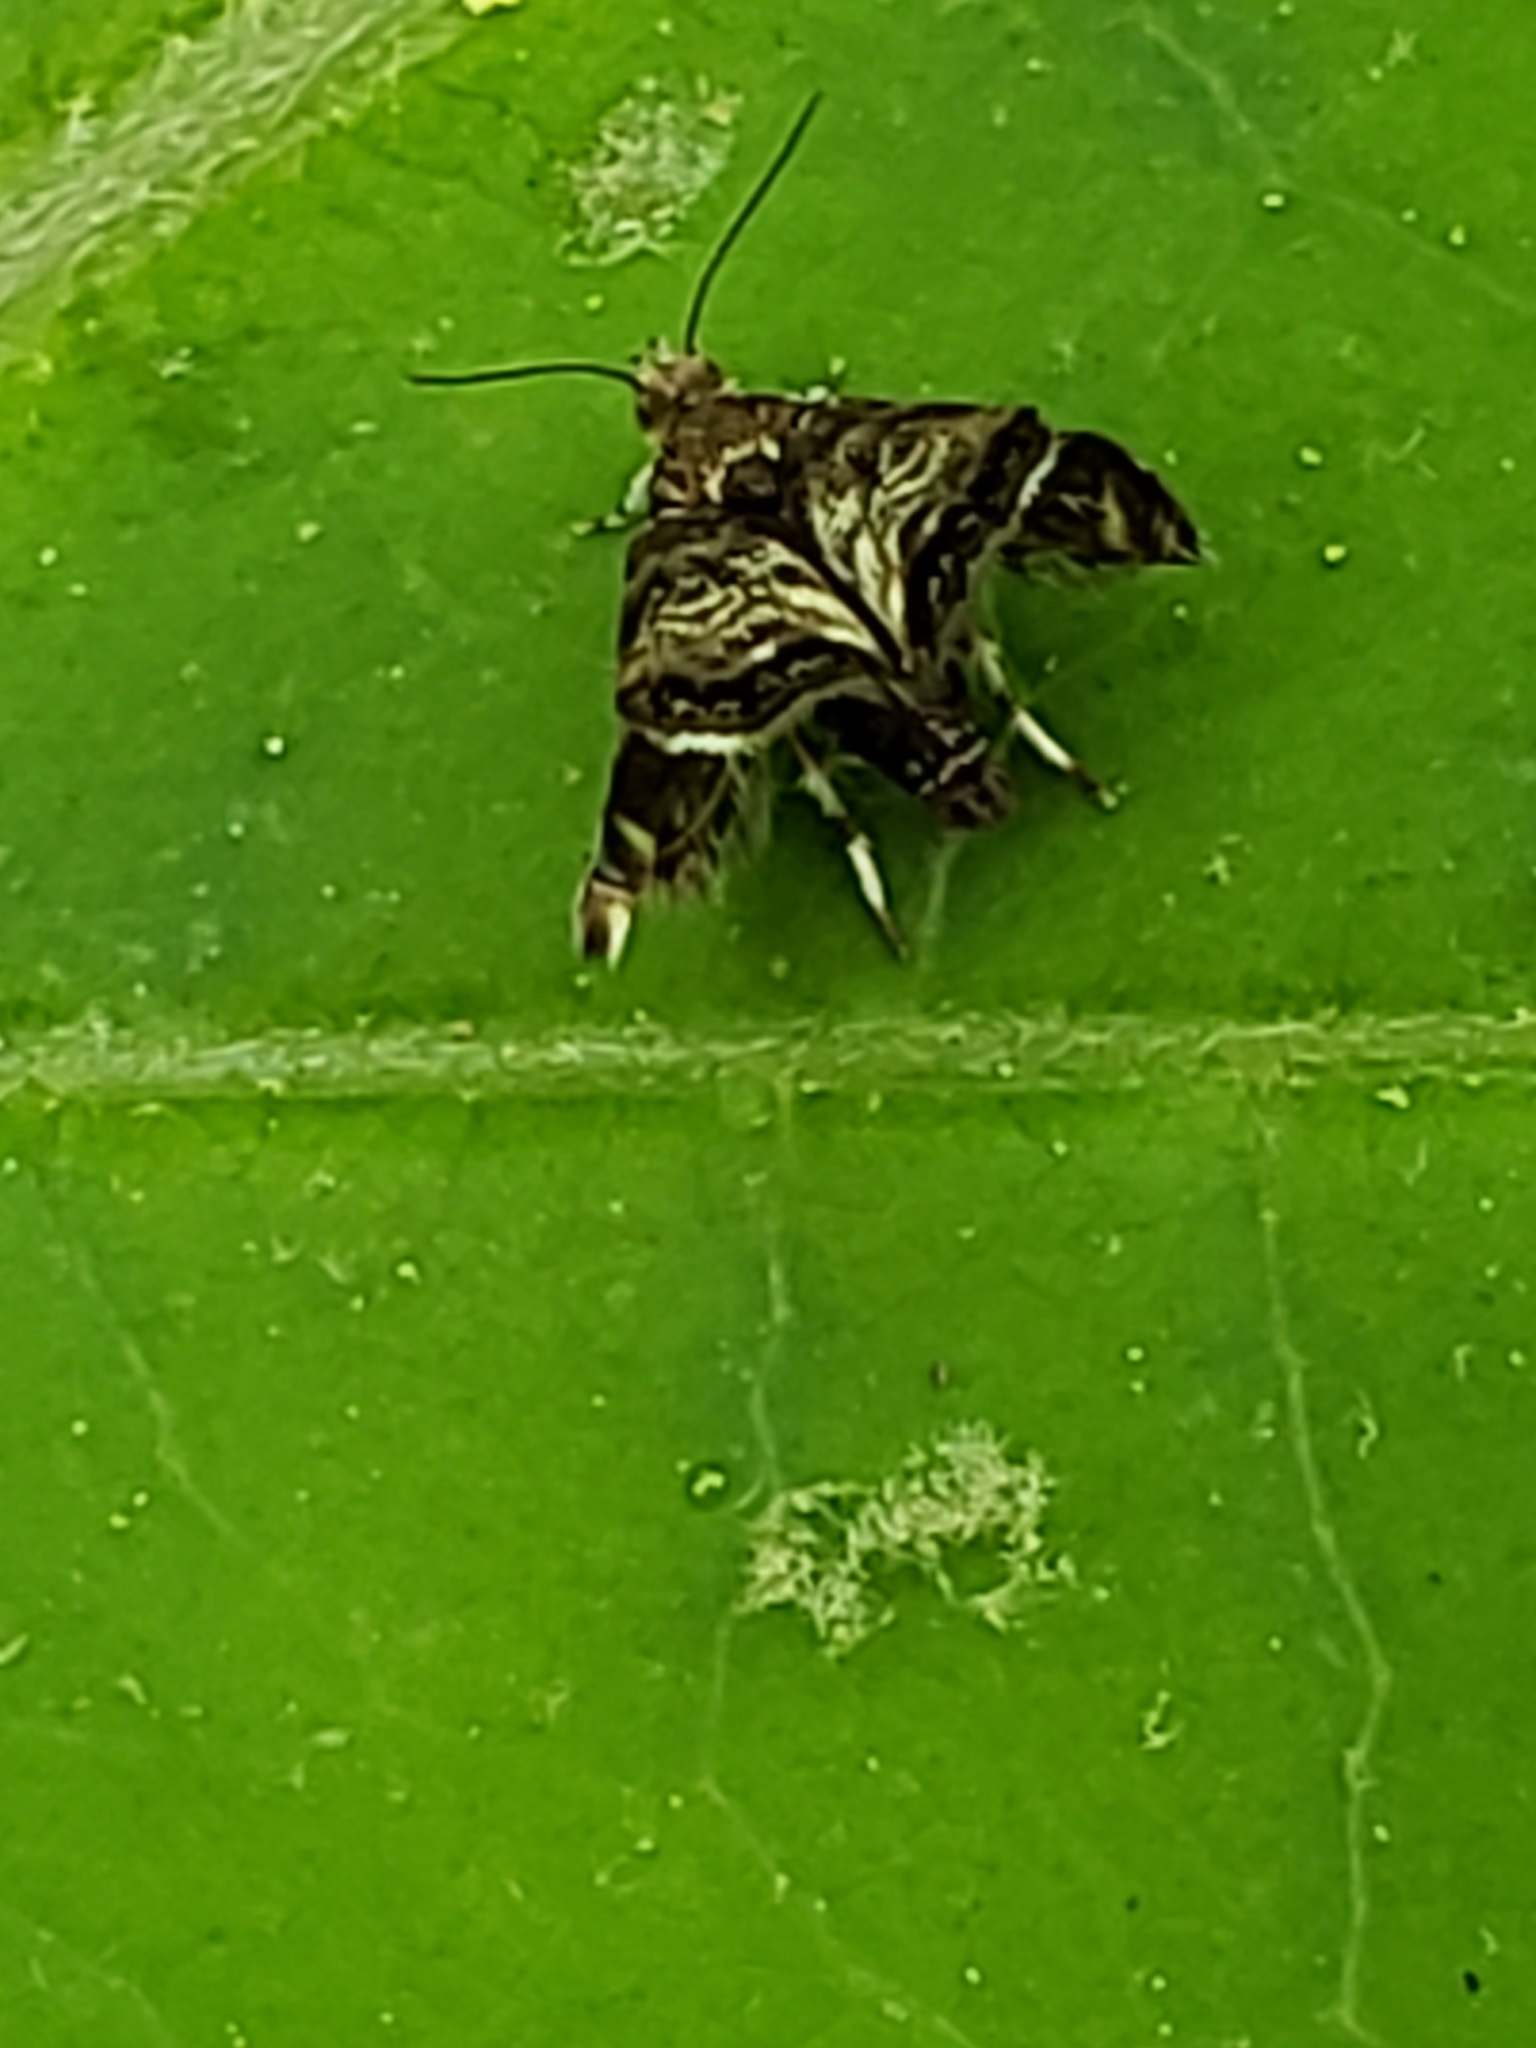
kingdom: Animalia
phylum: Arthropoda
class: Insecta
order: Lepidoptera
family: Choreutidae
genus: Brenthia
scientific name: Brenthia pavonacella
